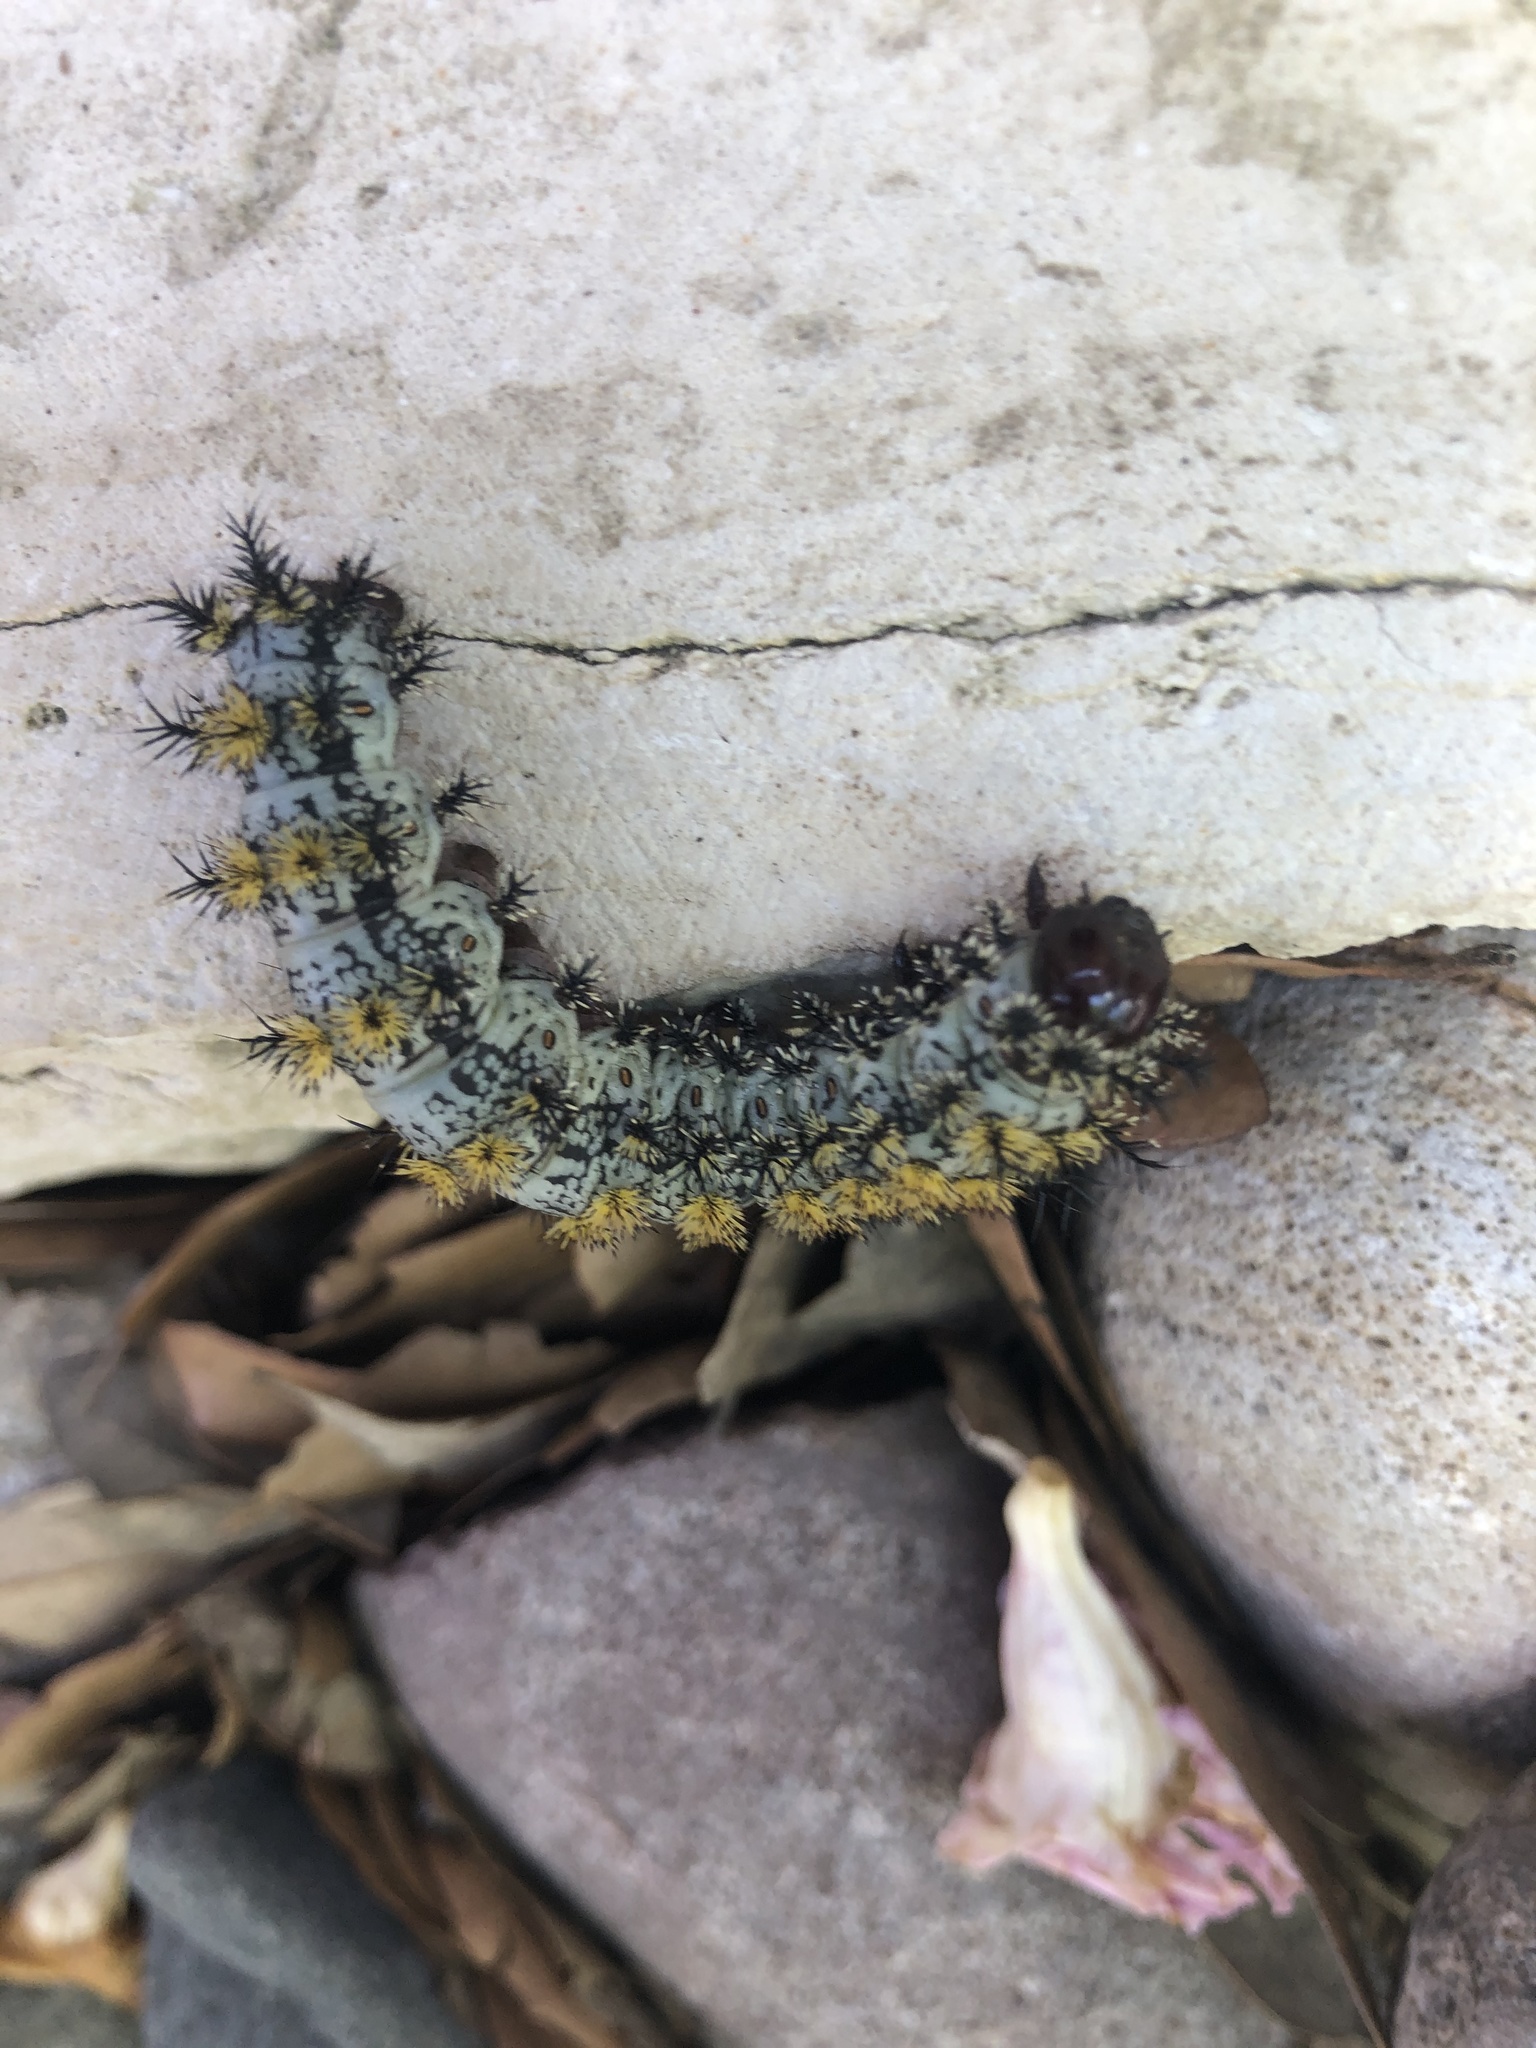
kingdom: Animalia
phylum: Arthropoda
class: Insecta
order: Lepidoptera
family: Saturniidae
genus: Hemileuca
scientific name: Hemileuca peigleri
